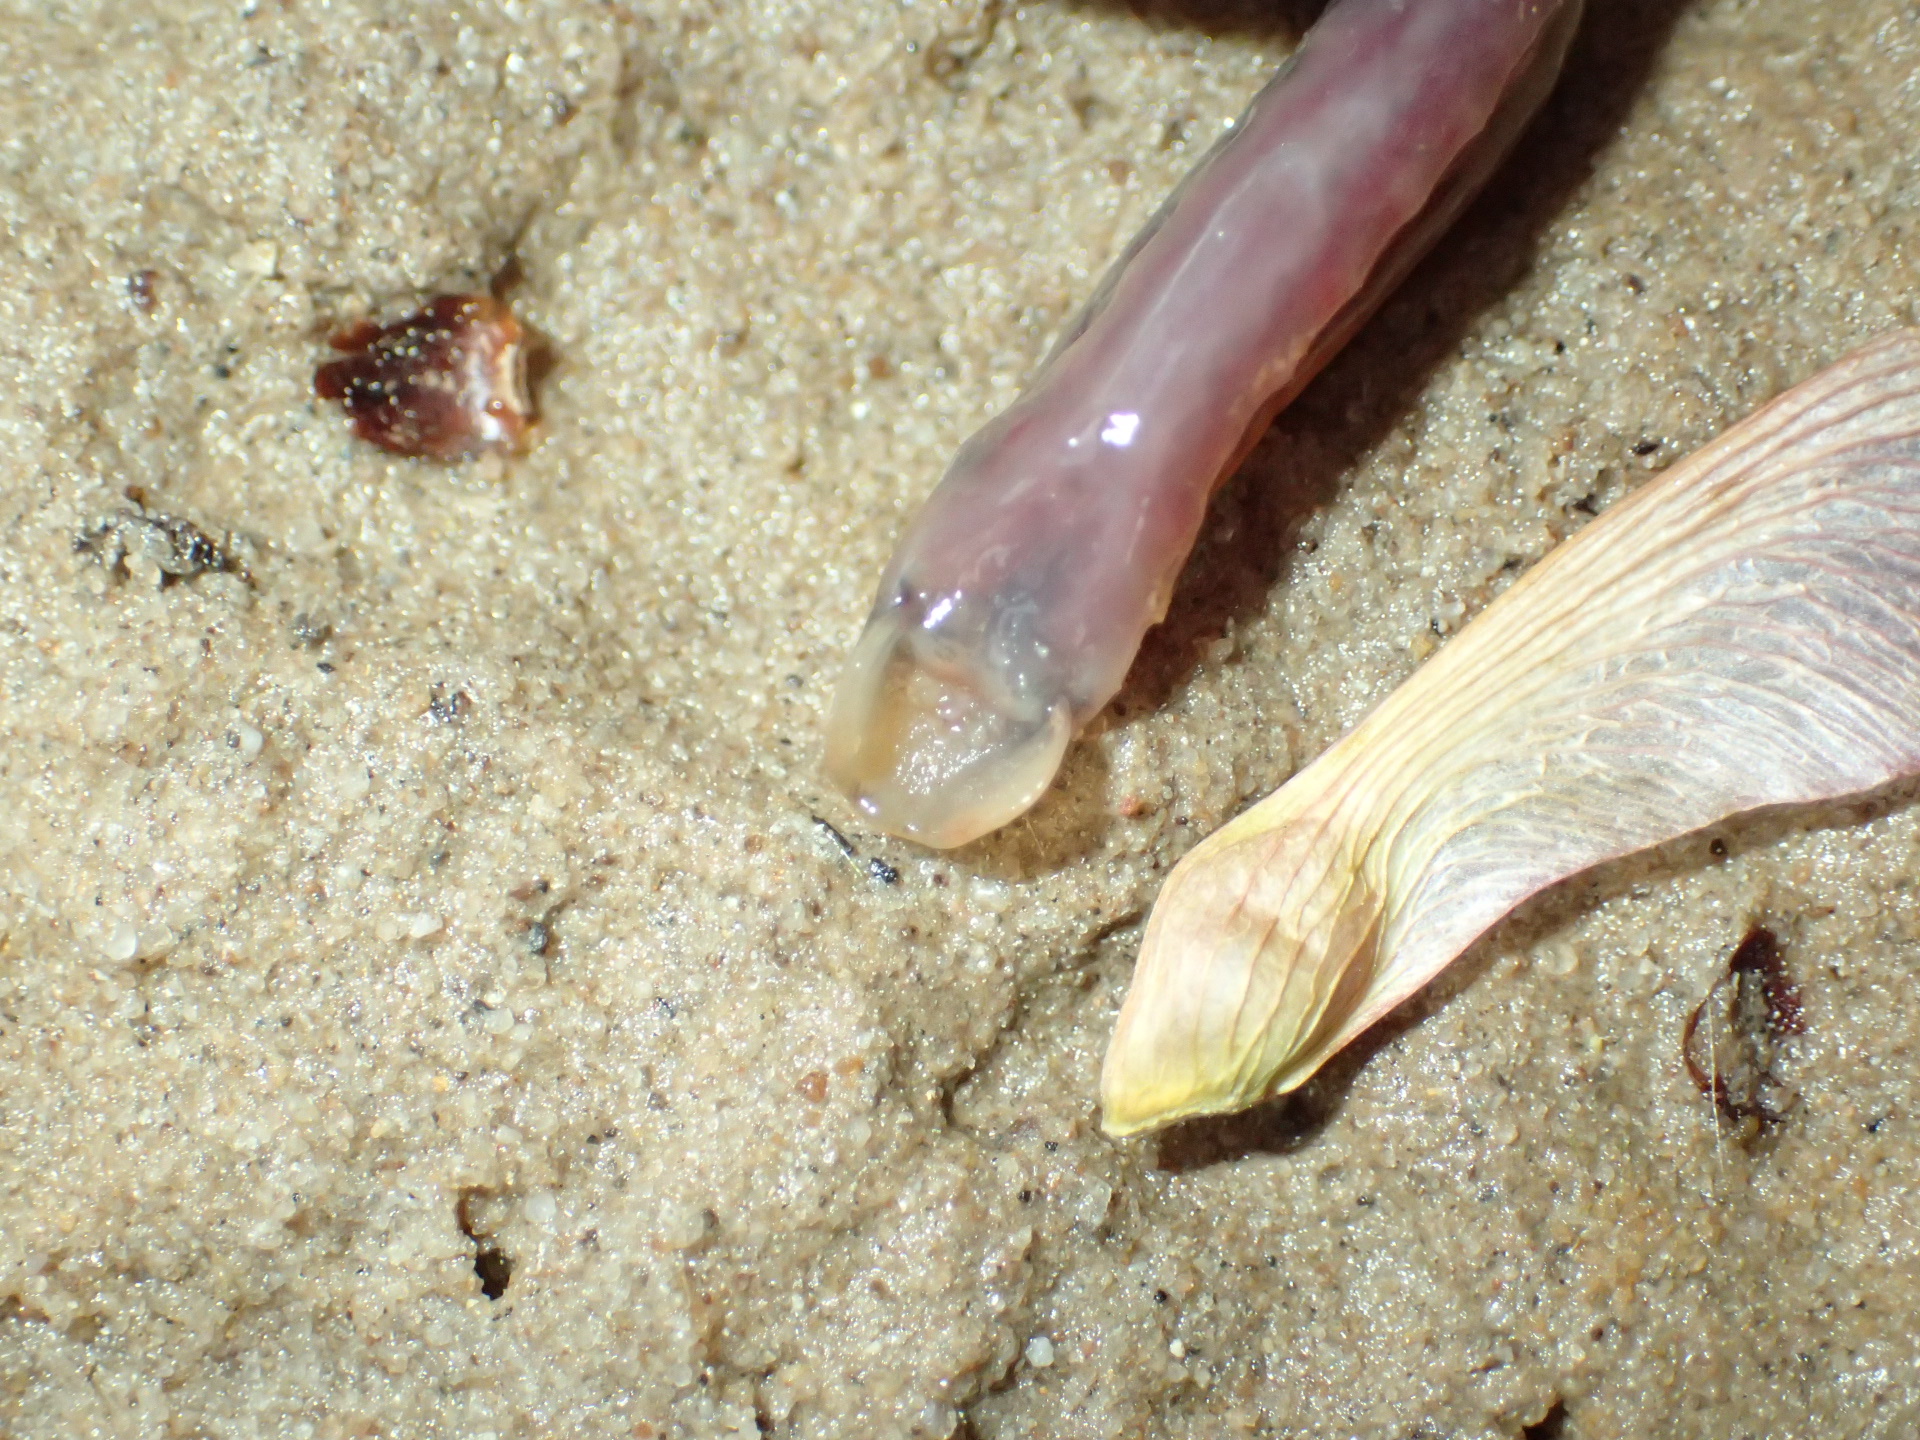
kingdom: Animalia
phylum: Chordata
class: Petromyzonti
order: Petromyzontiformes
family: Petromyzontidae
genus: Lampetra
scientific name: Lampetra aepyptera
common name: Least brook lamprey
